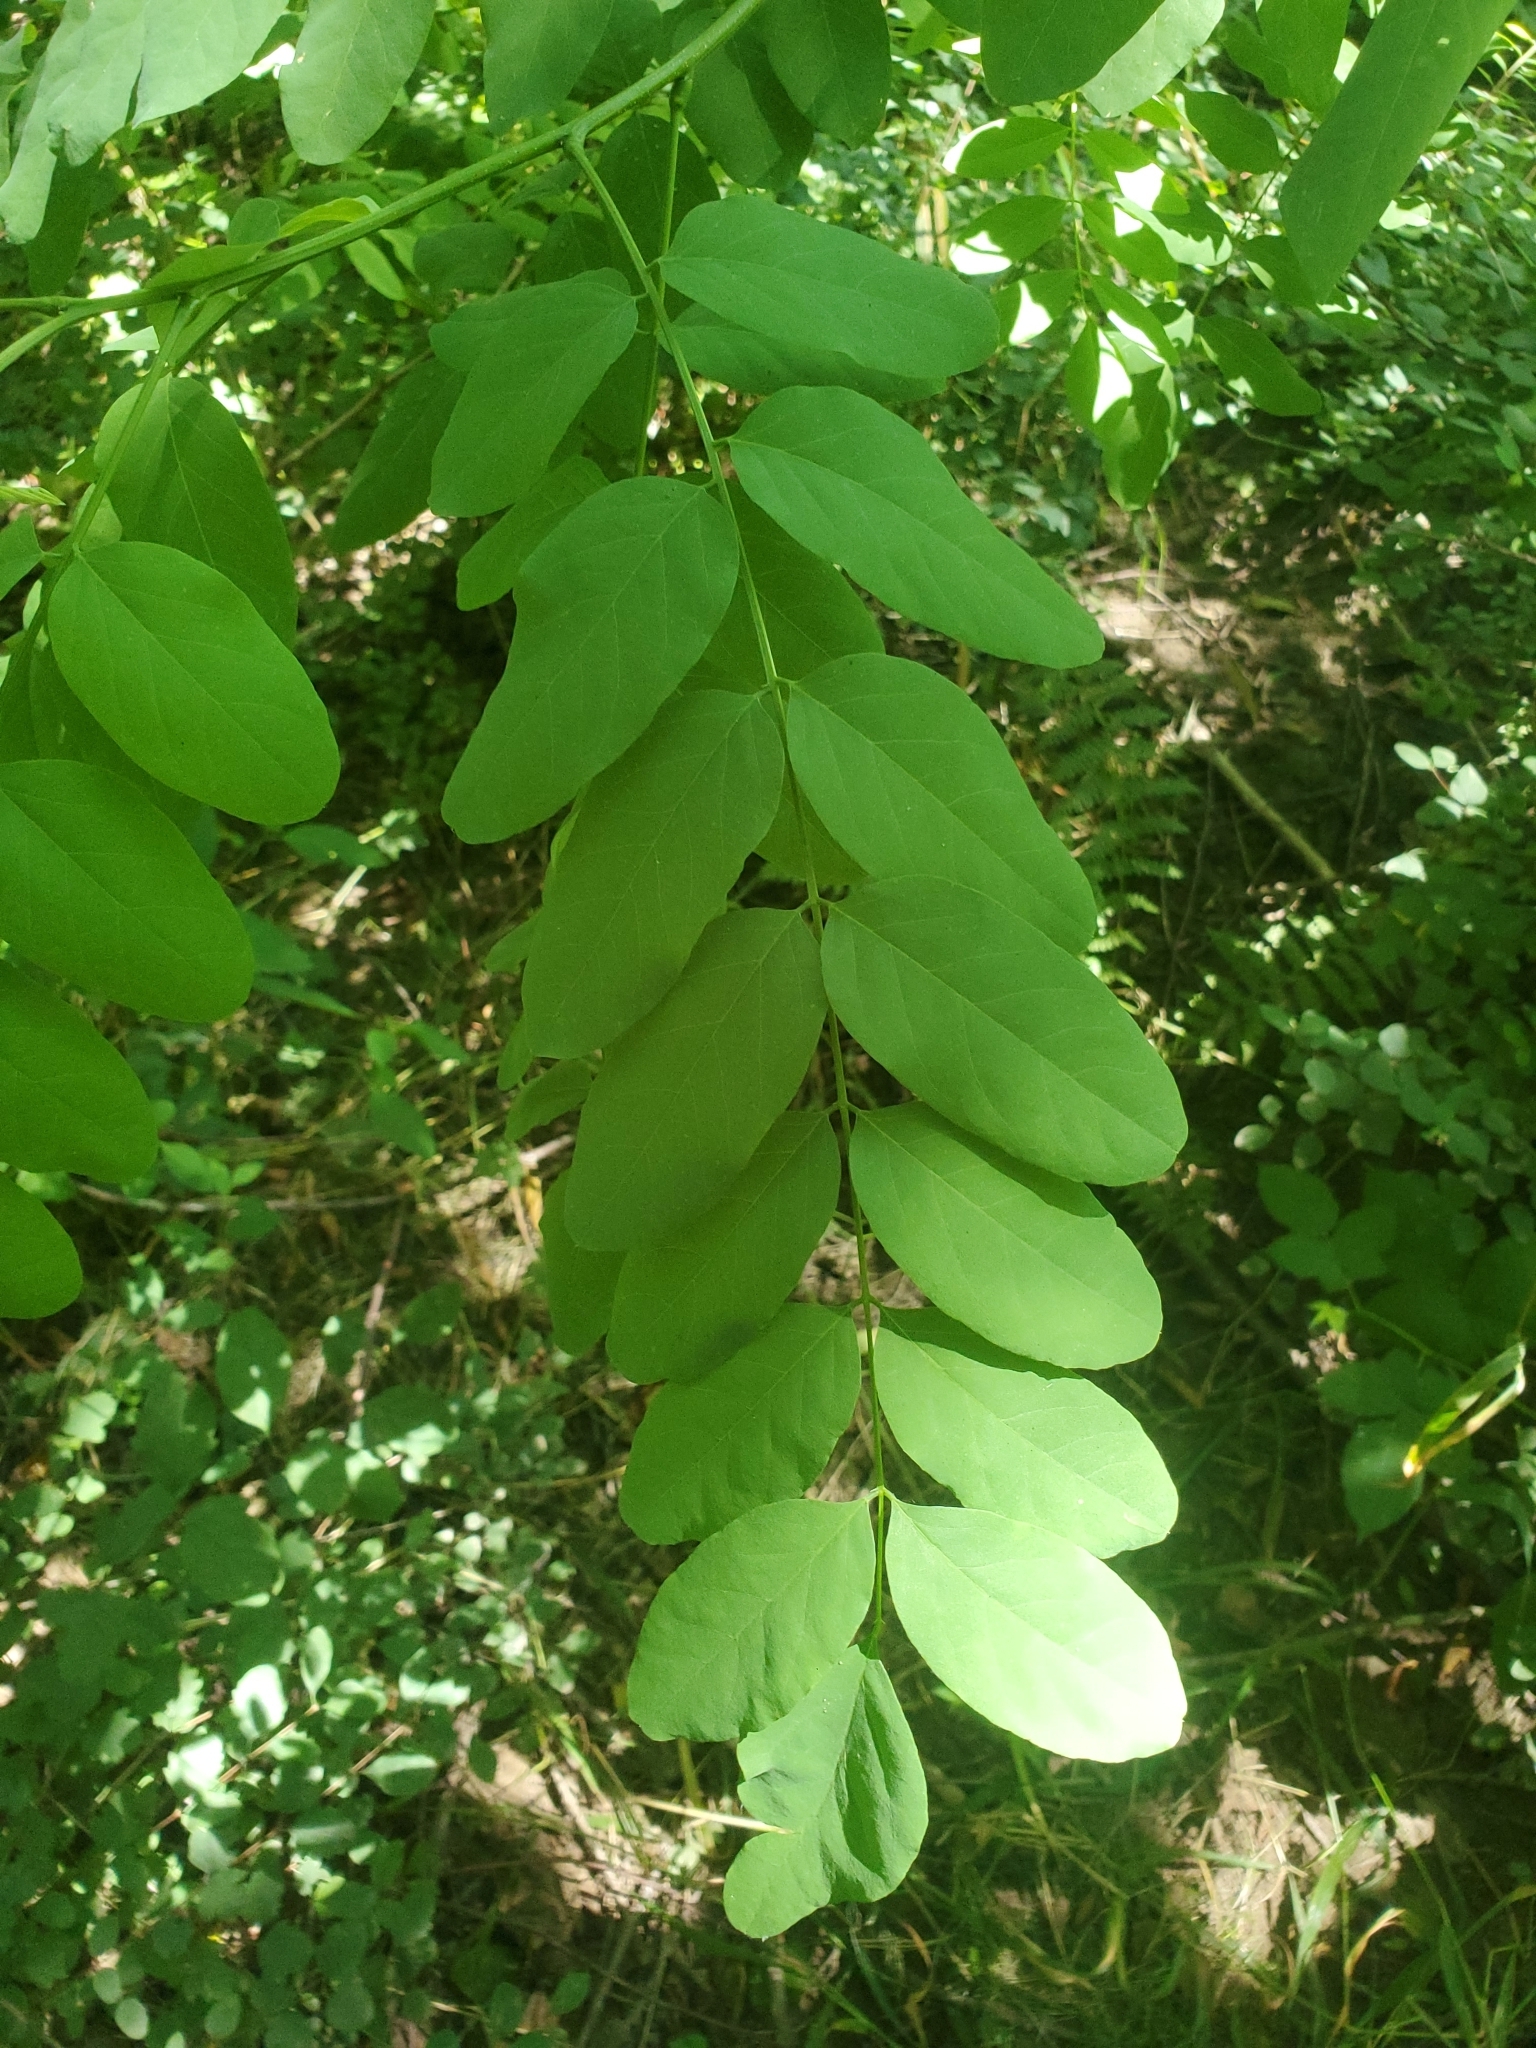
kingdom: Plantae
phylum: Tracheophyta
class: Magnoliopsida
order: Fabales
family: Fabaceae
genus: Robinia
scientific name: Robinia pseudoacacia
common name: Black locust
